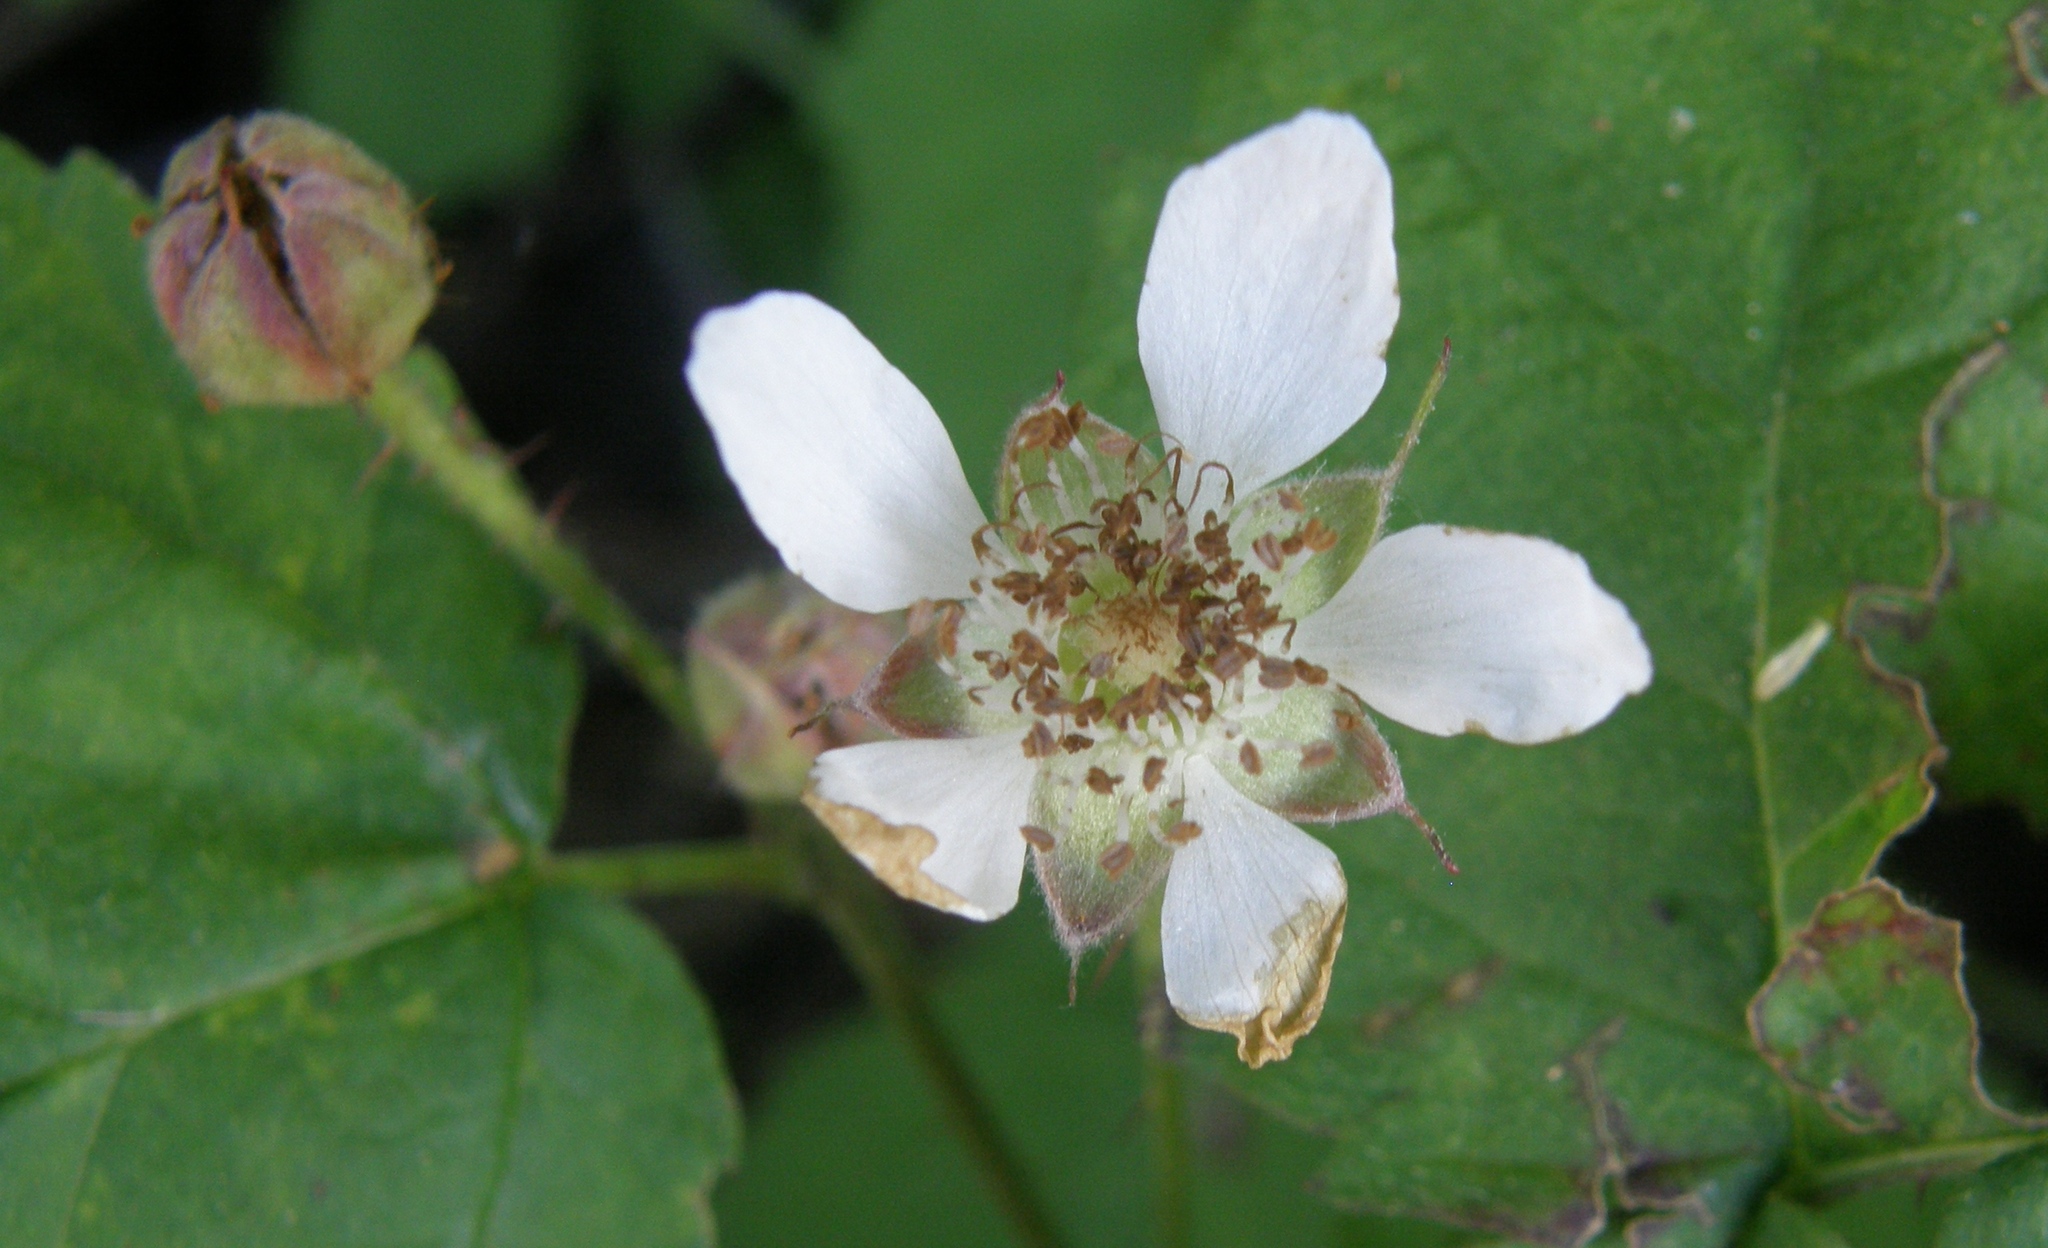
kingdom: Plantae
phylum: Tracheophyta
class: Magnoliopsida
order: Rosales
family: Rosaceae
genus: Rubus
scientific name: Rubus ursinus
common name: Pacific blackberry
